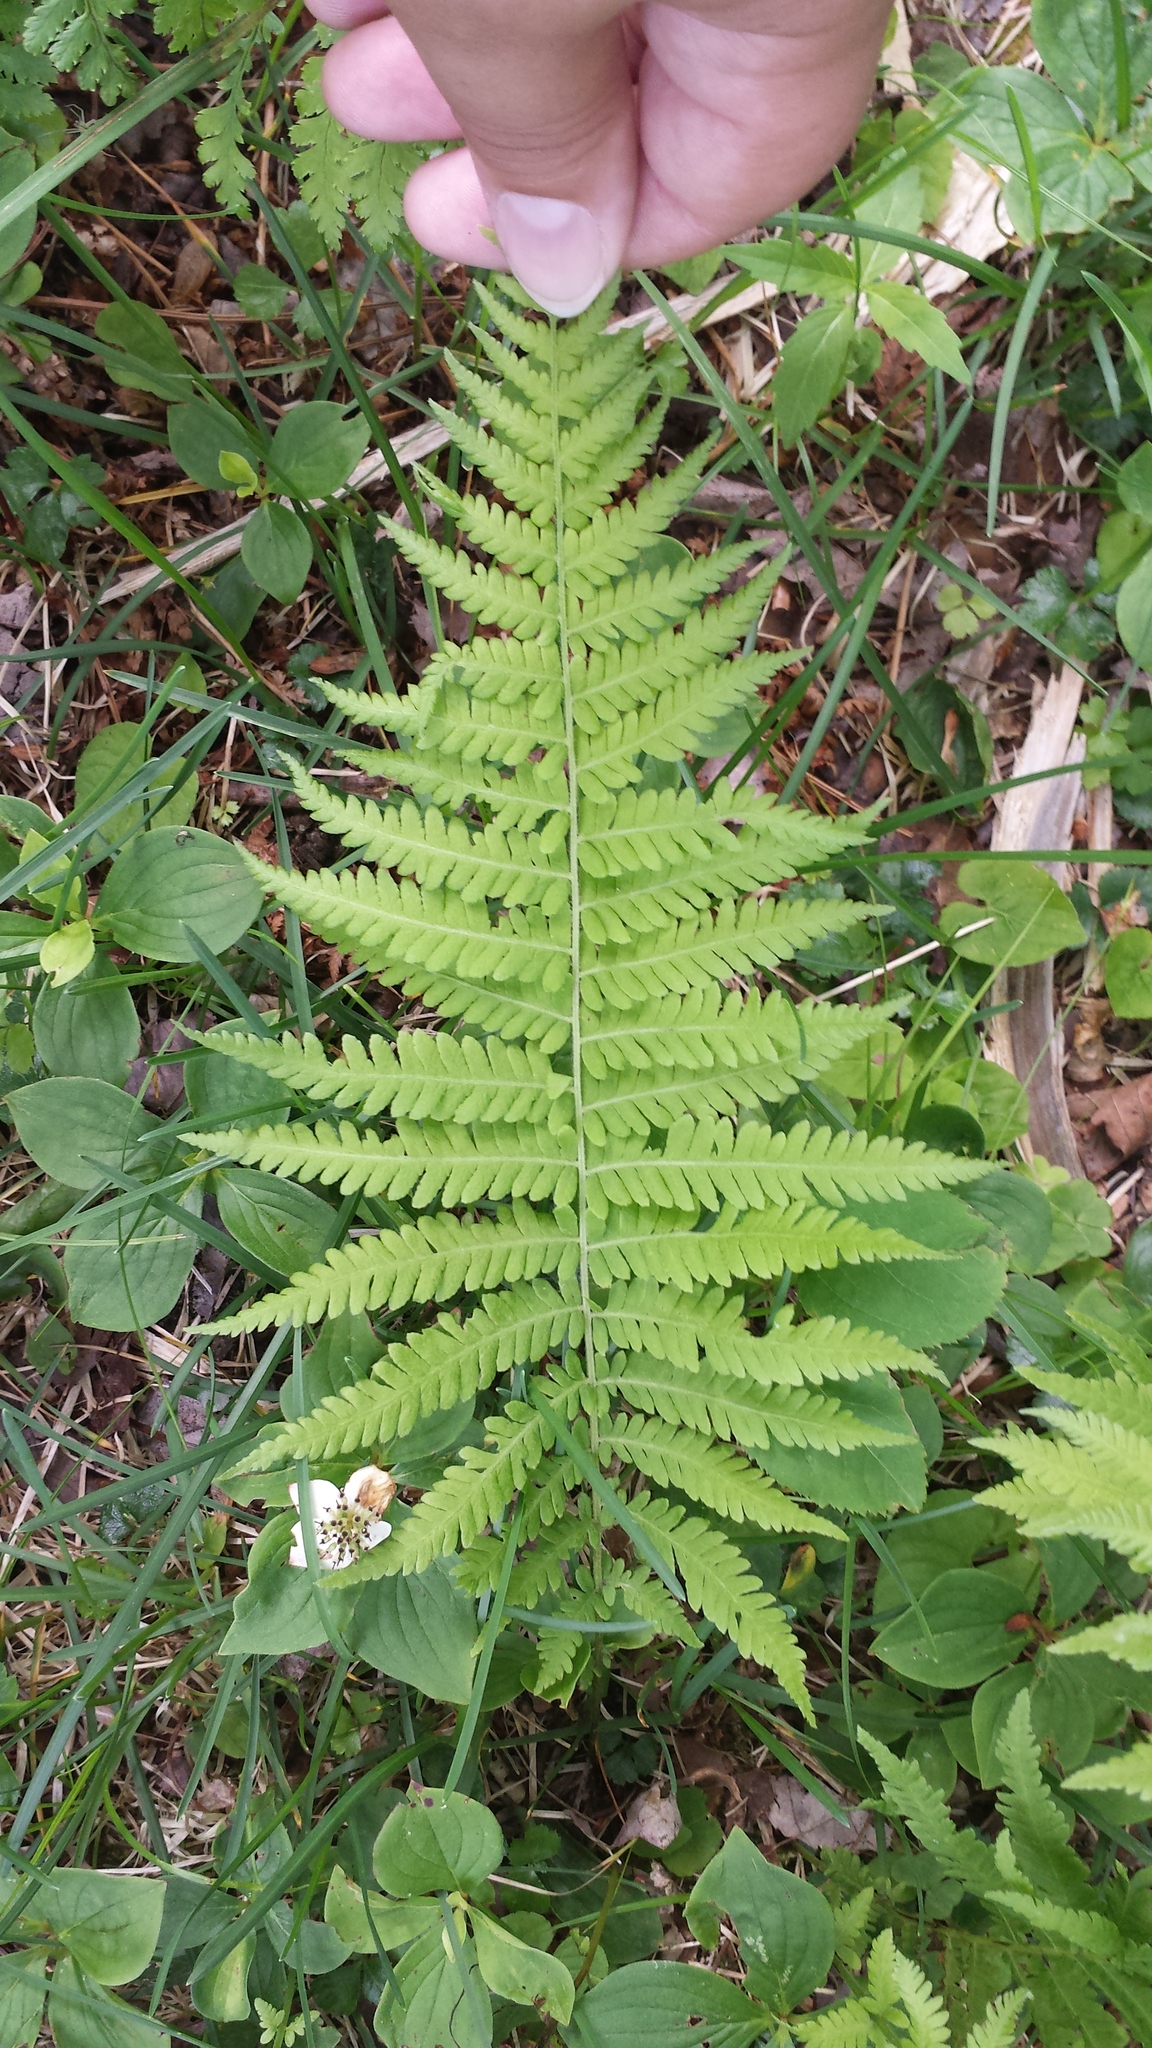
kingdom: Plantae
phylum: Tracheophyta
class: Polypodiopsida
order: Polypodiales
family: Thelypteridaceae
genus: Amauropelta
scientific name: Amauropelta noveboracensis
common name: New york fern
